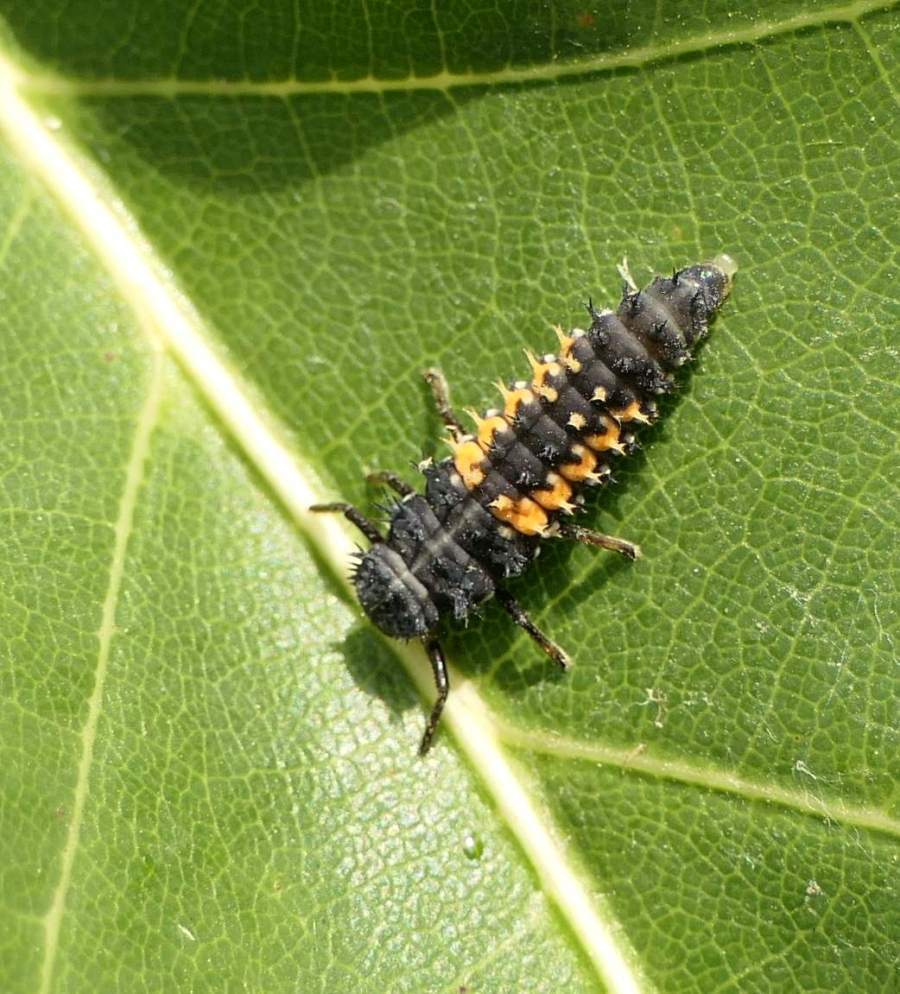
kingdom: Animalia
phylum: Arthropoda
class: Insecta
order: Coleoptera
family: Coccinellidae
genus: Harmonia
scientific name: Harmonia axyridis
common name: Harlequin ladybird
